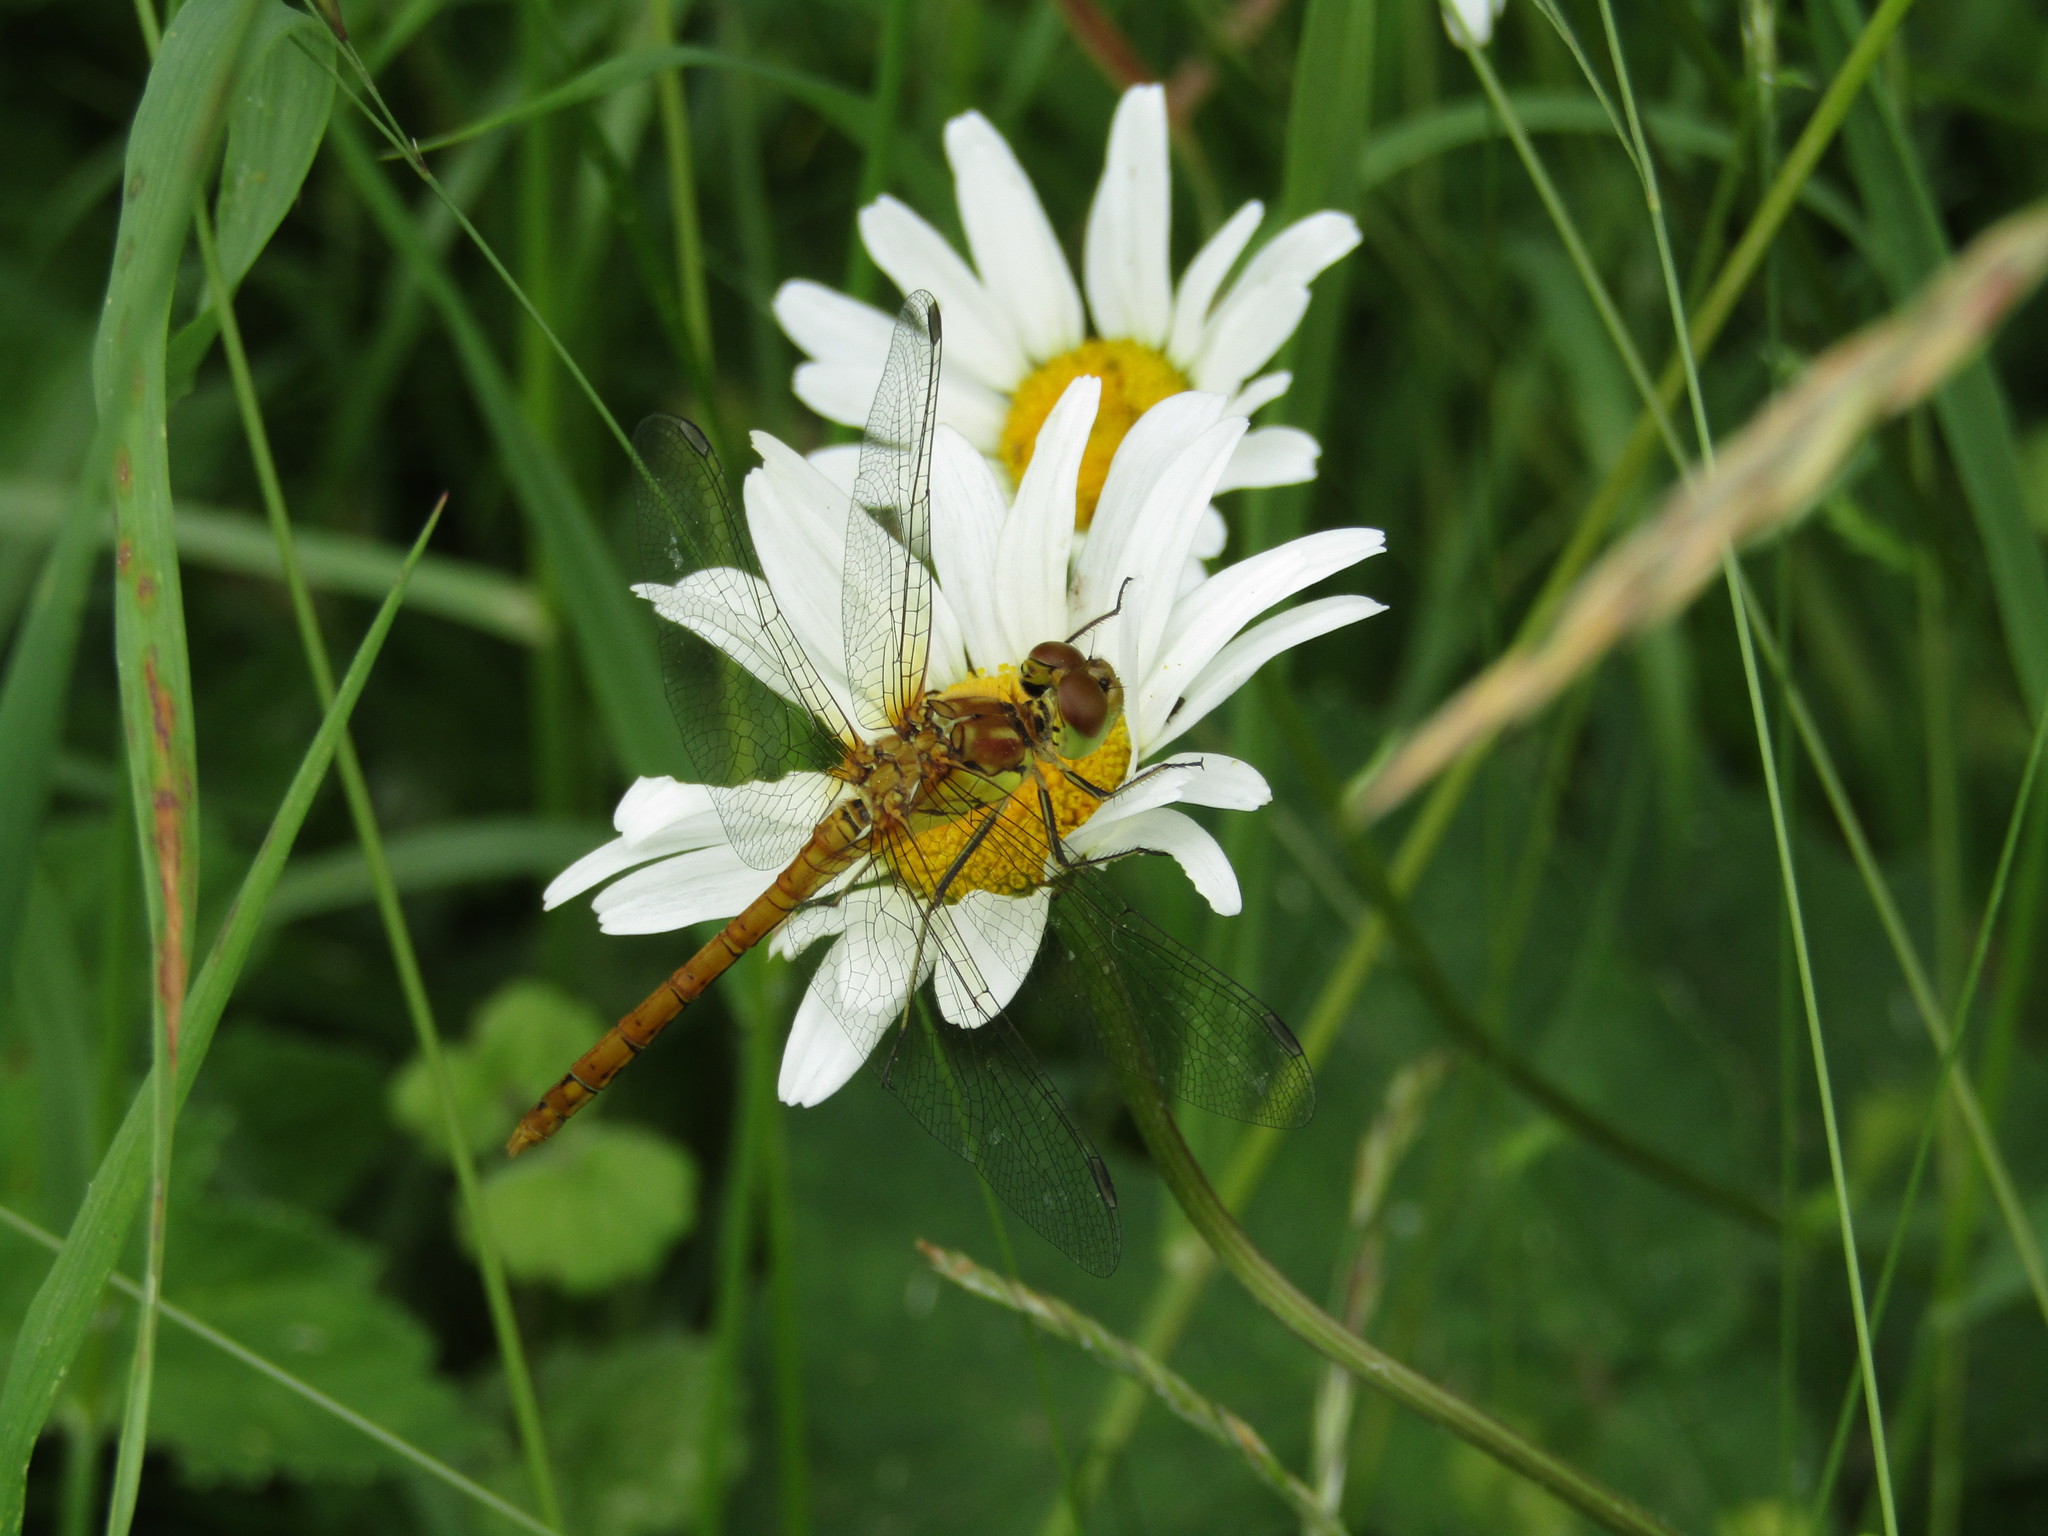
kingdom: Animalia
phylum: Arthropoda
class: Insecta
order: Odonata
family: Libellulidae
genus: Sympetrum
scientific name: Sympetrum striolatum
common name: Common darter
